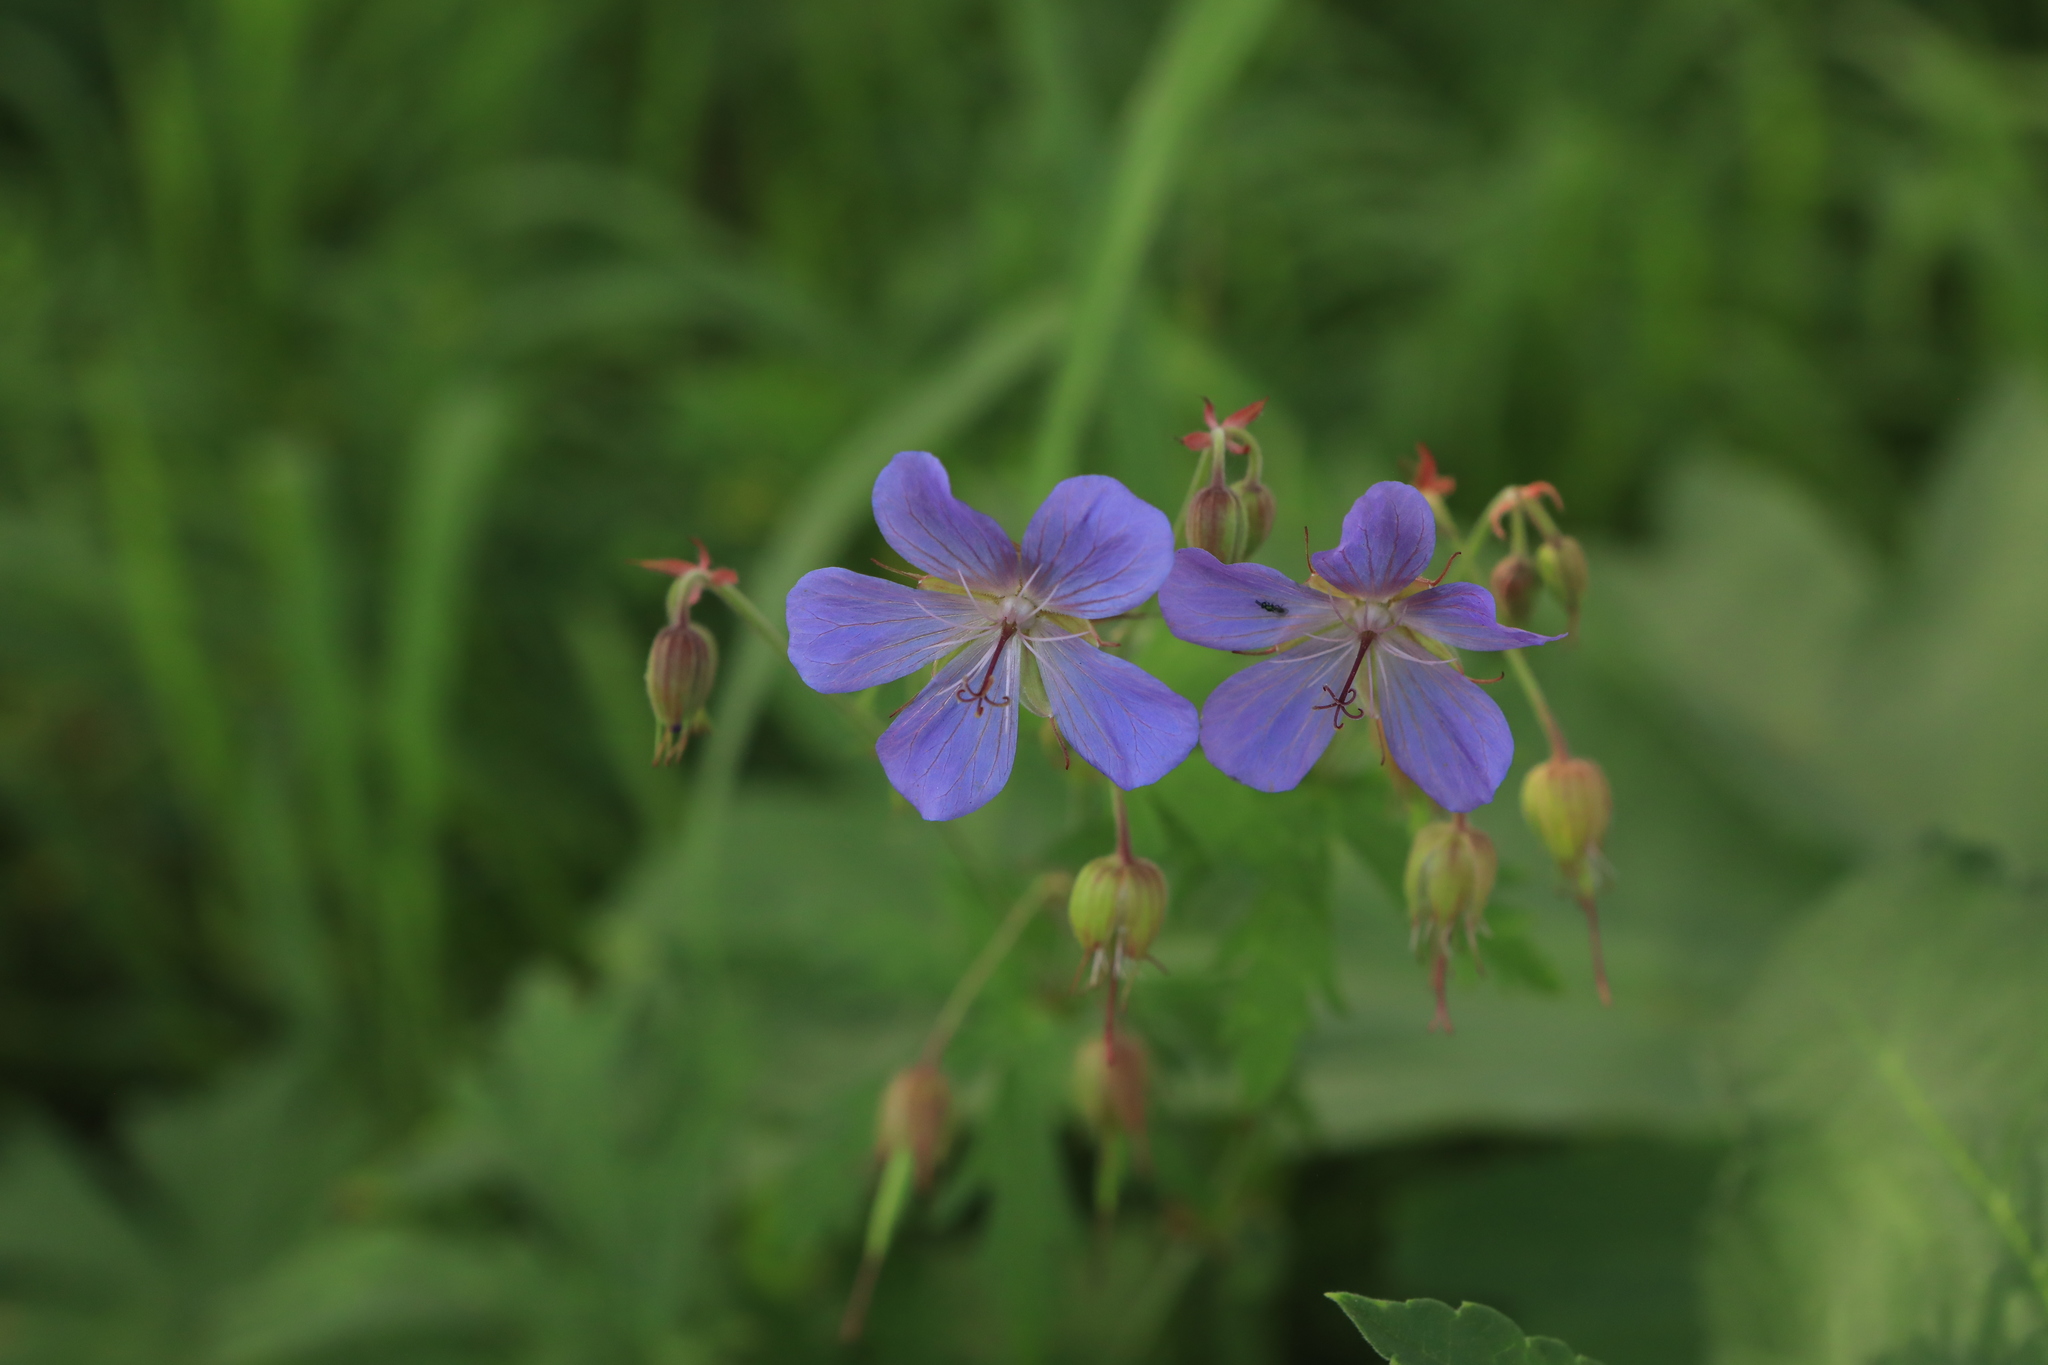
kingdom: Plantae
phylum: Tracheophyta
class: Magnoliopsida
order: Geraniales
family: Geraniaceae
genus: Geranium
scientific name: Geranium pratense
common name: Meadow crane's-bill
